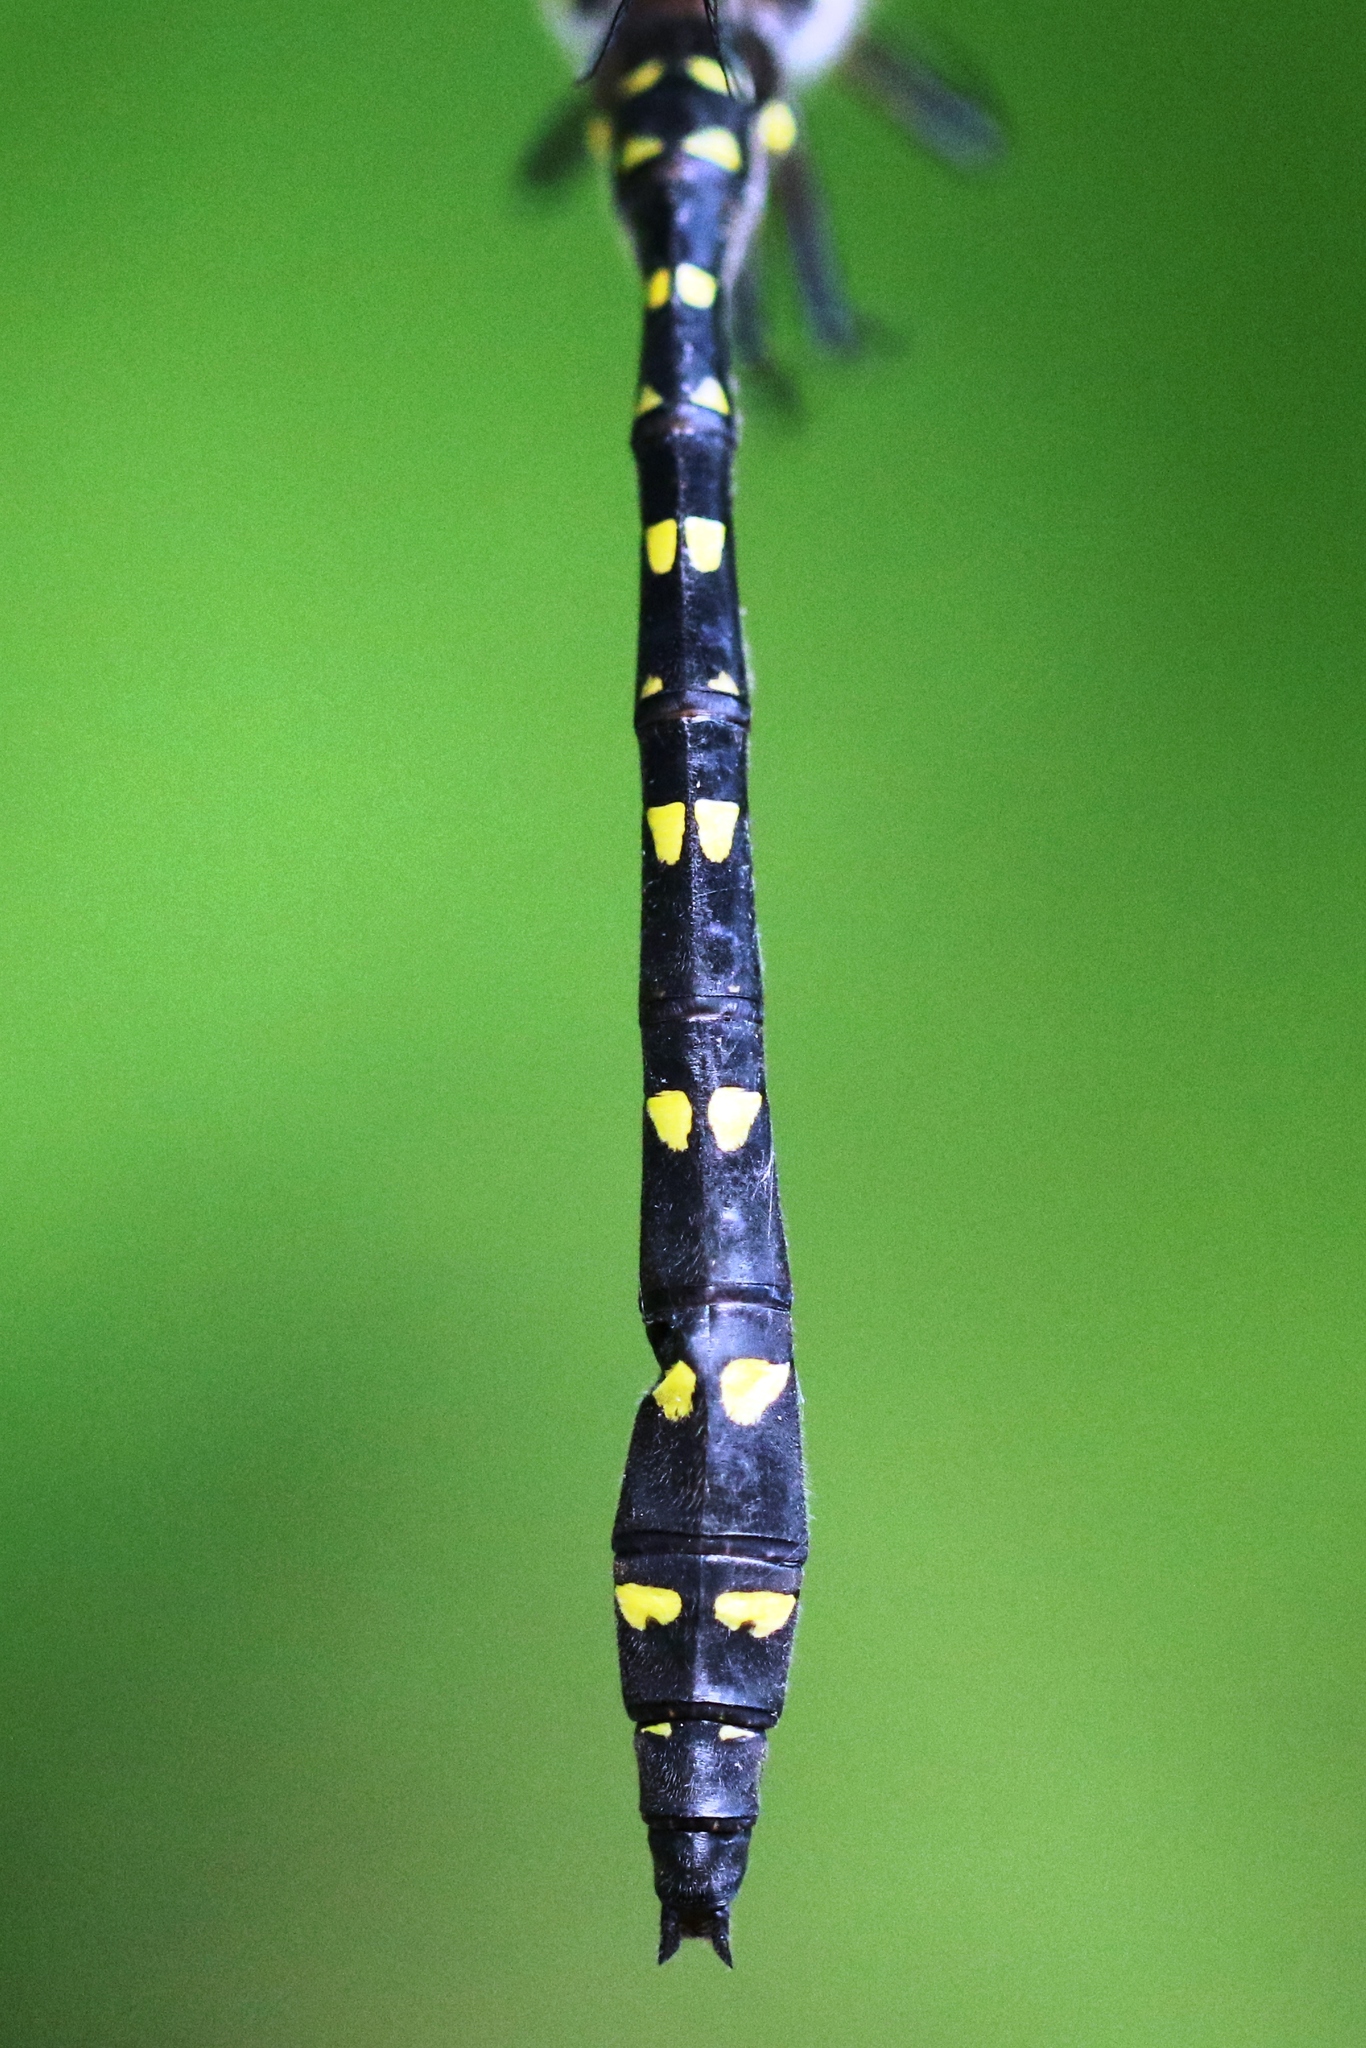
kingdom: Animalia
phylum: Arthropoda
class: Insecta
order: Odonata
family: Cordulegastridae
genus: Cordulegaster
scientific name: Cordulegaster maculata
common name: Twin-spotted spiketail
